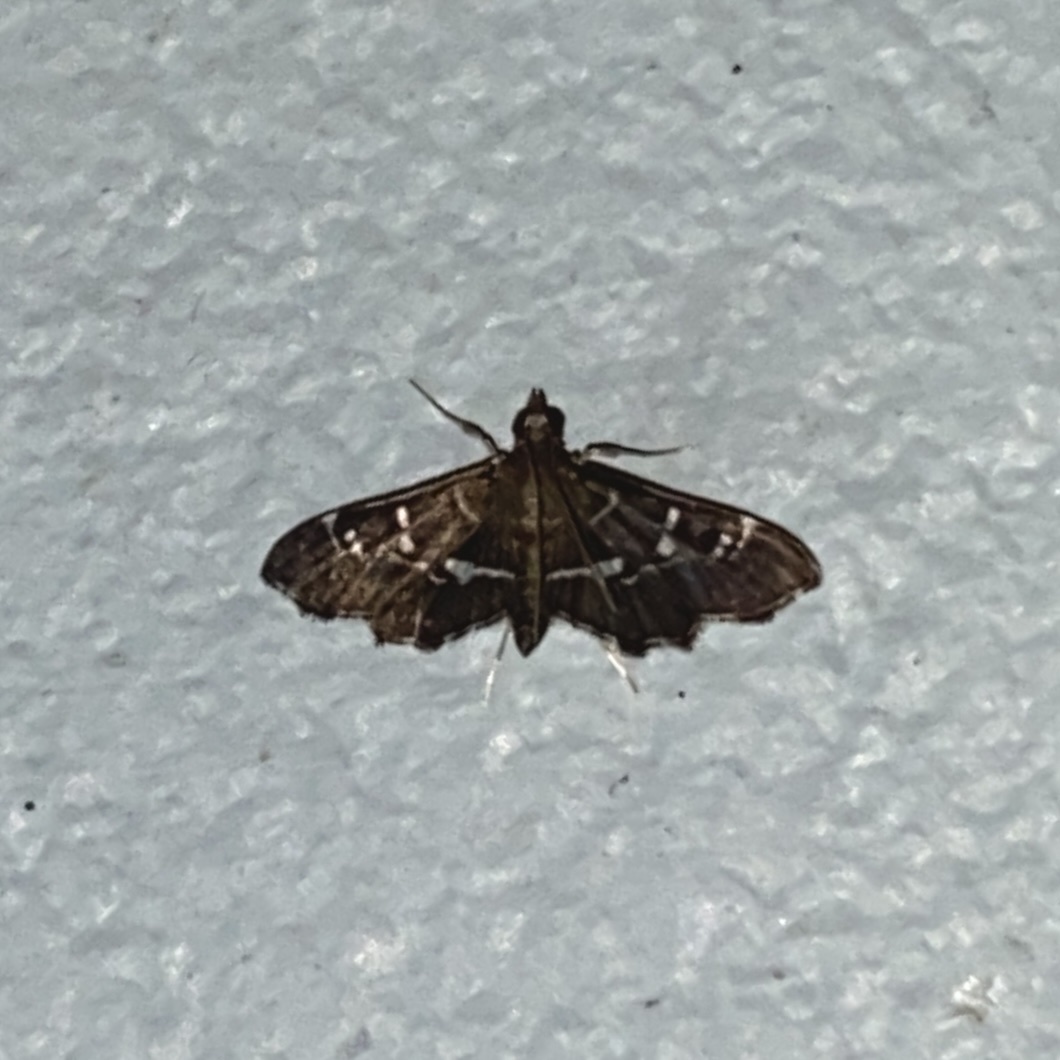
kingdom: Animalia
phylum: Arthropoda
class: Insecta
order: Lepidoptera
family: Crambidae
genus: Diathrausta
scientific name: Diathrausta nerinalis
